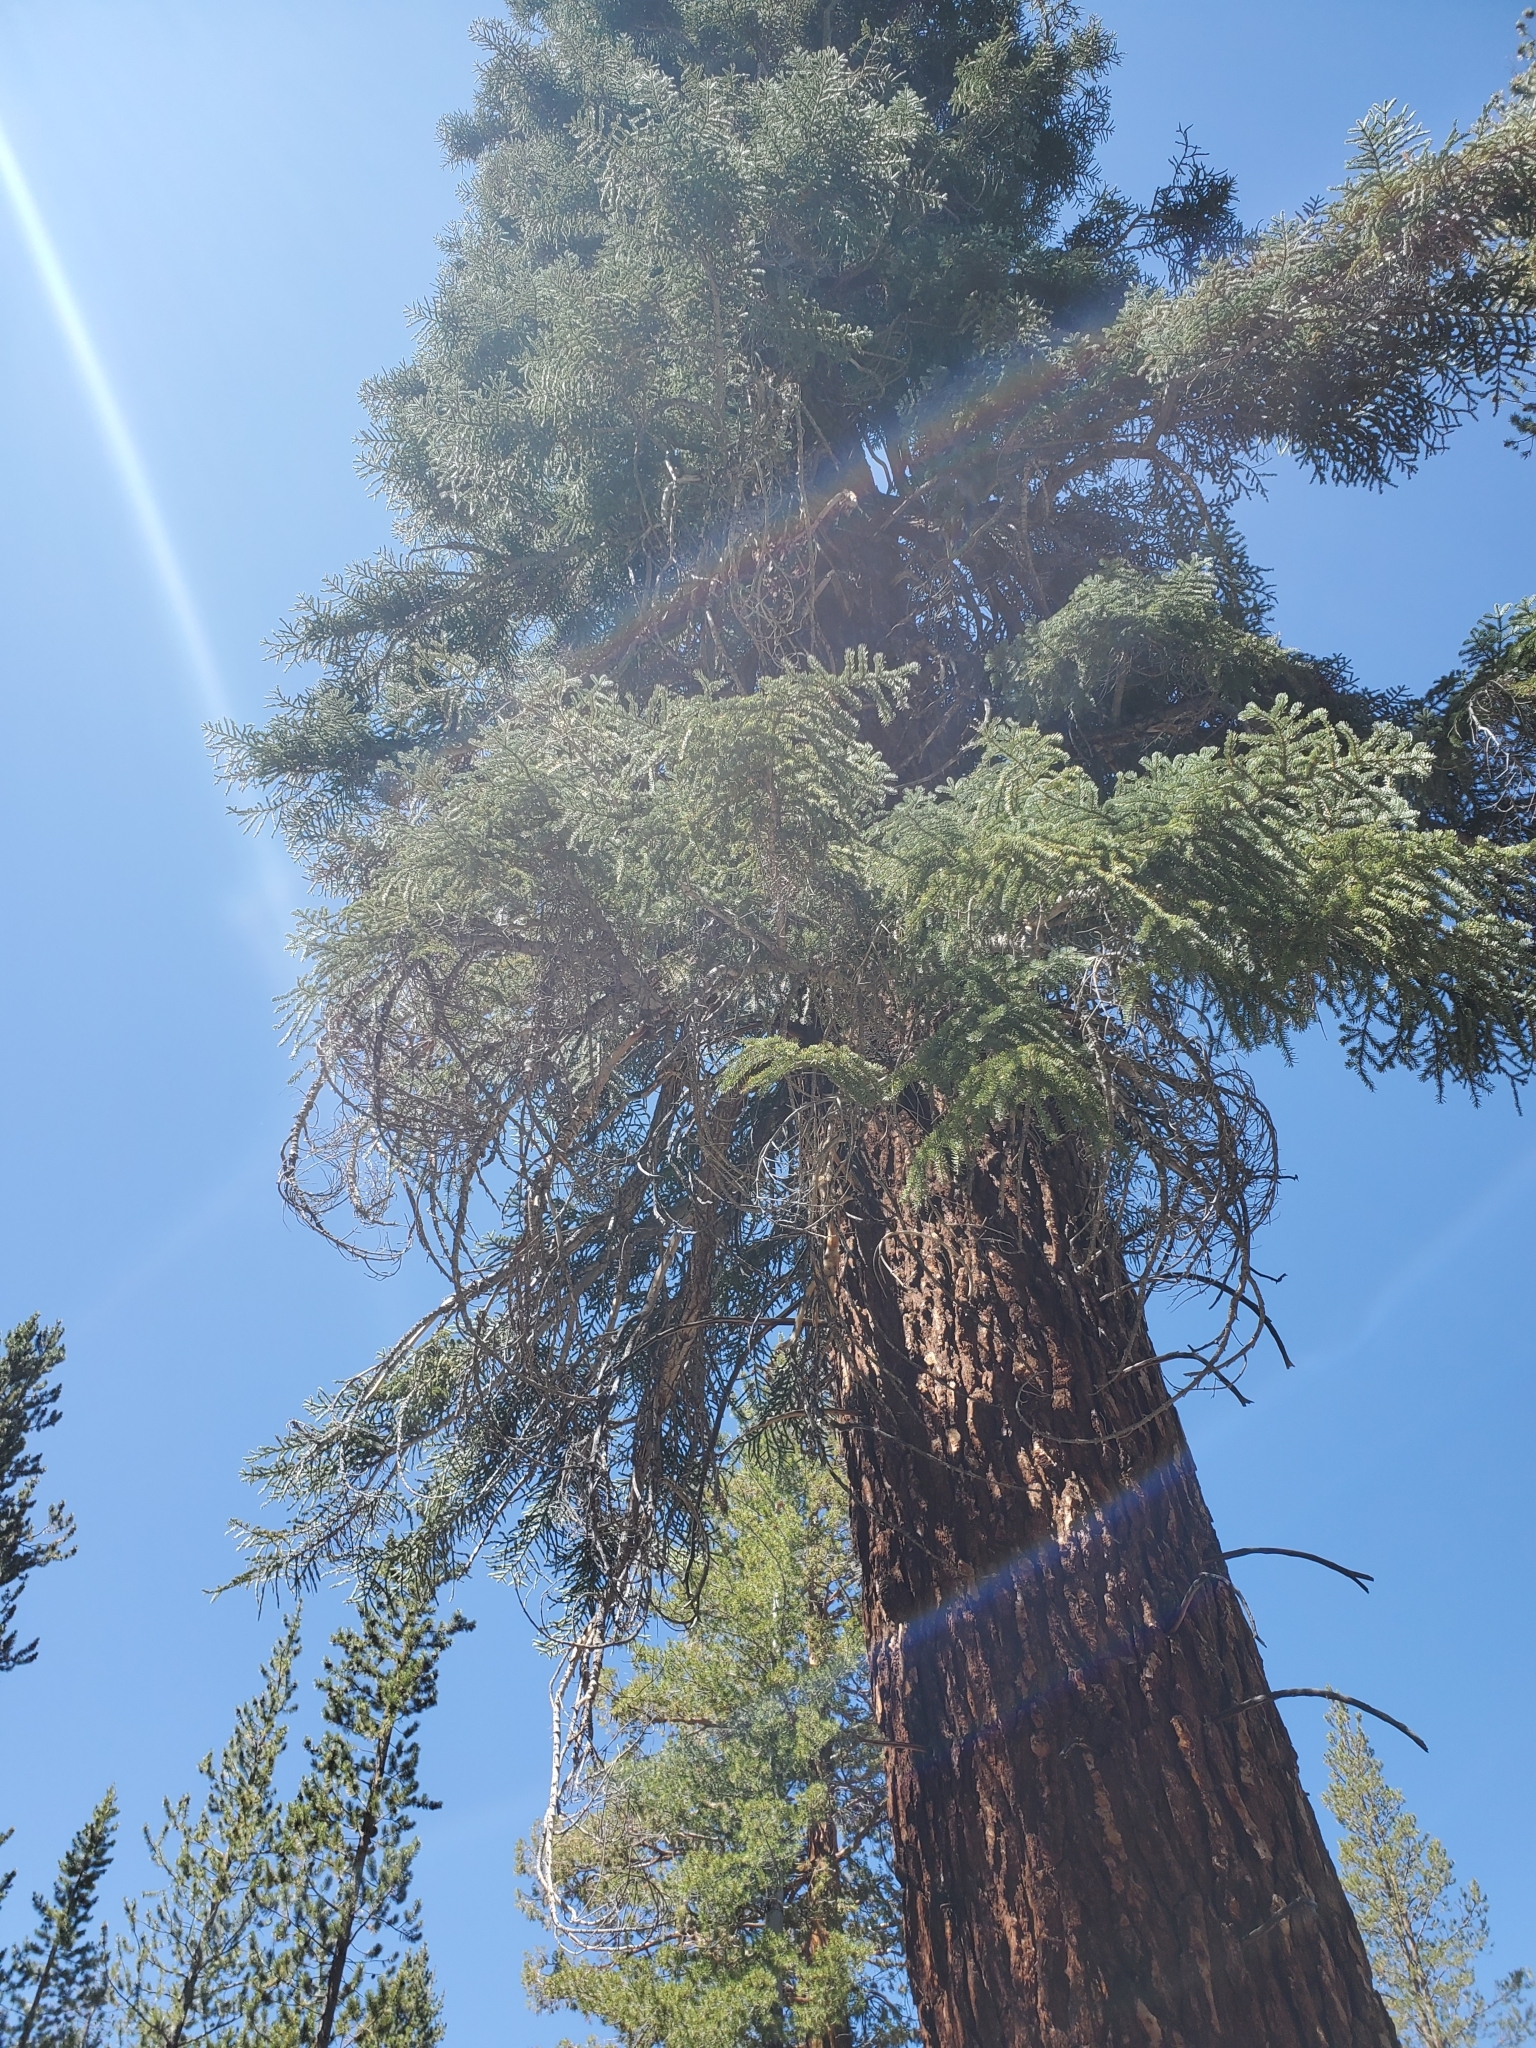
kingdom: Plantae
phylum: Tracheophyta
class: Pinopsida
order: Pinales
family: Pinaceae
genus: Abies
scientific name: Abies magnifica bis
